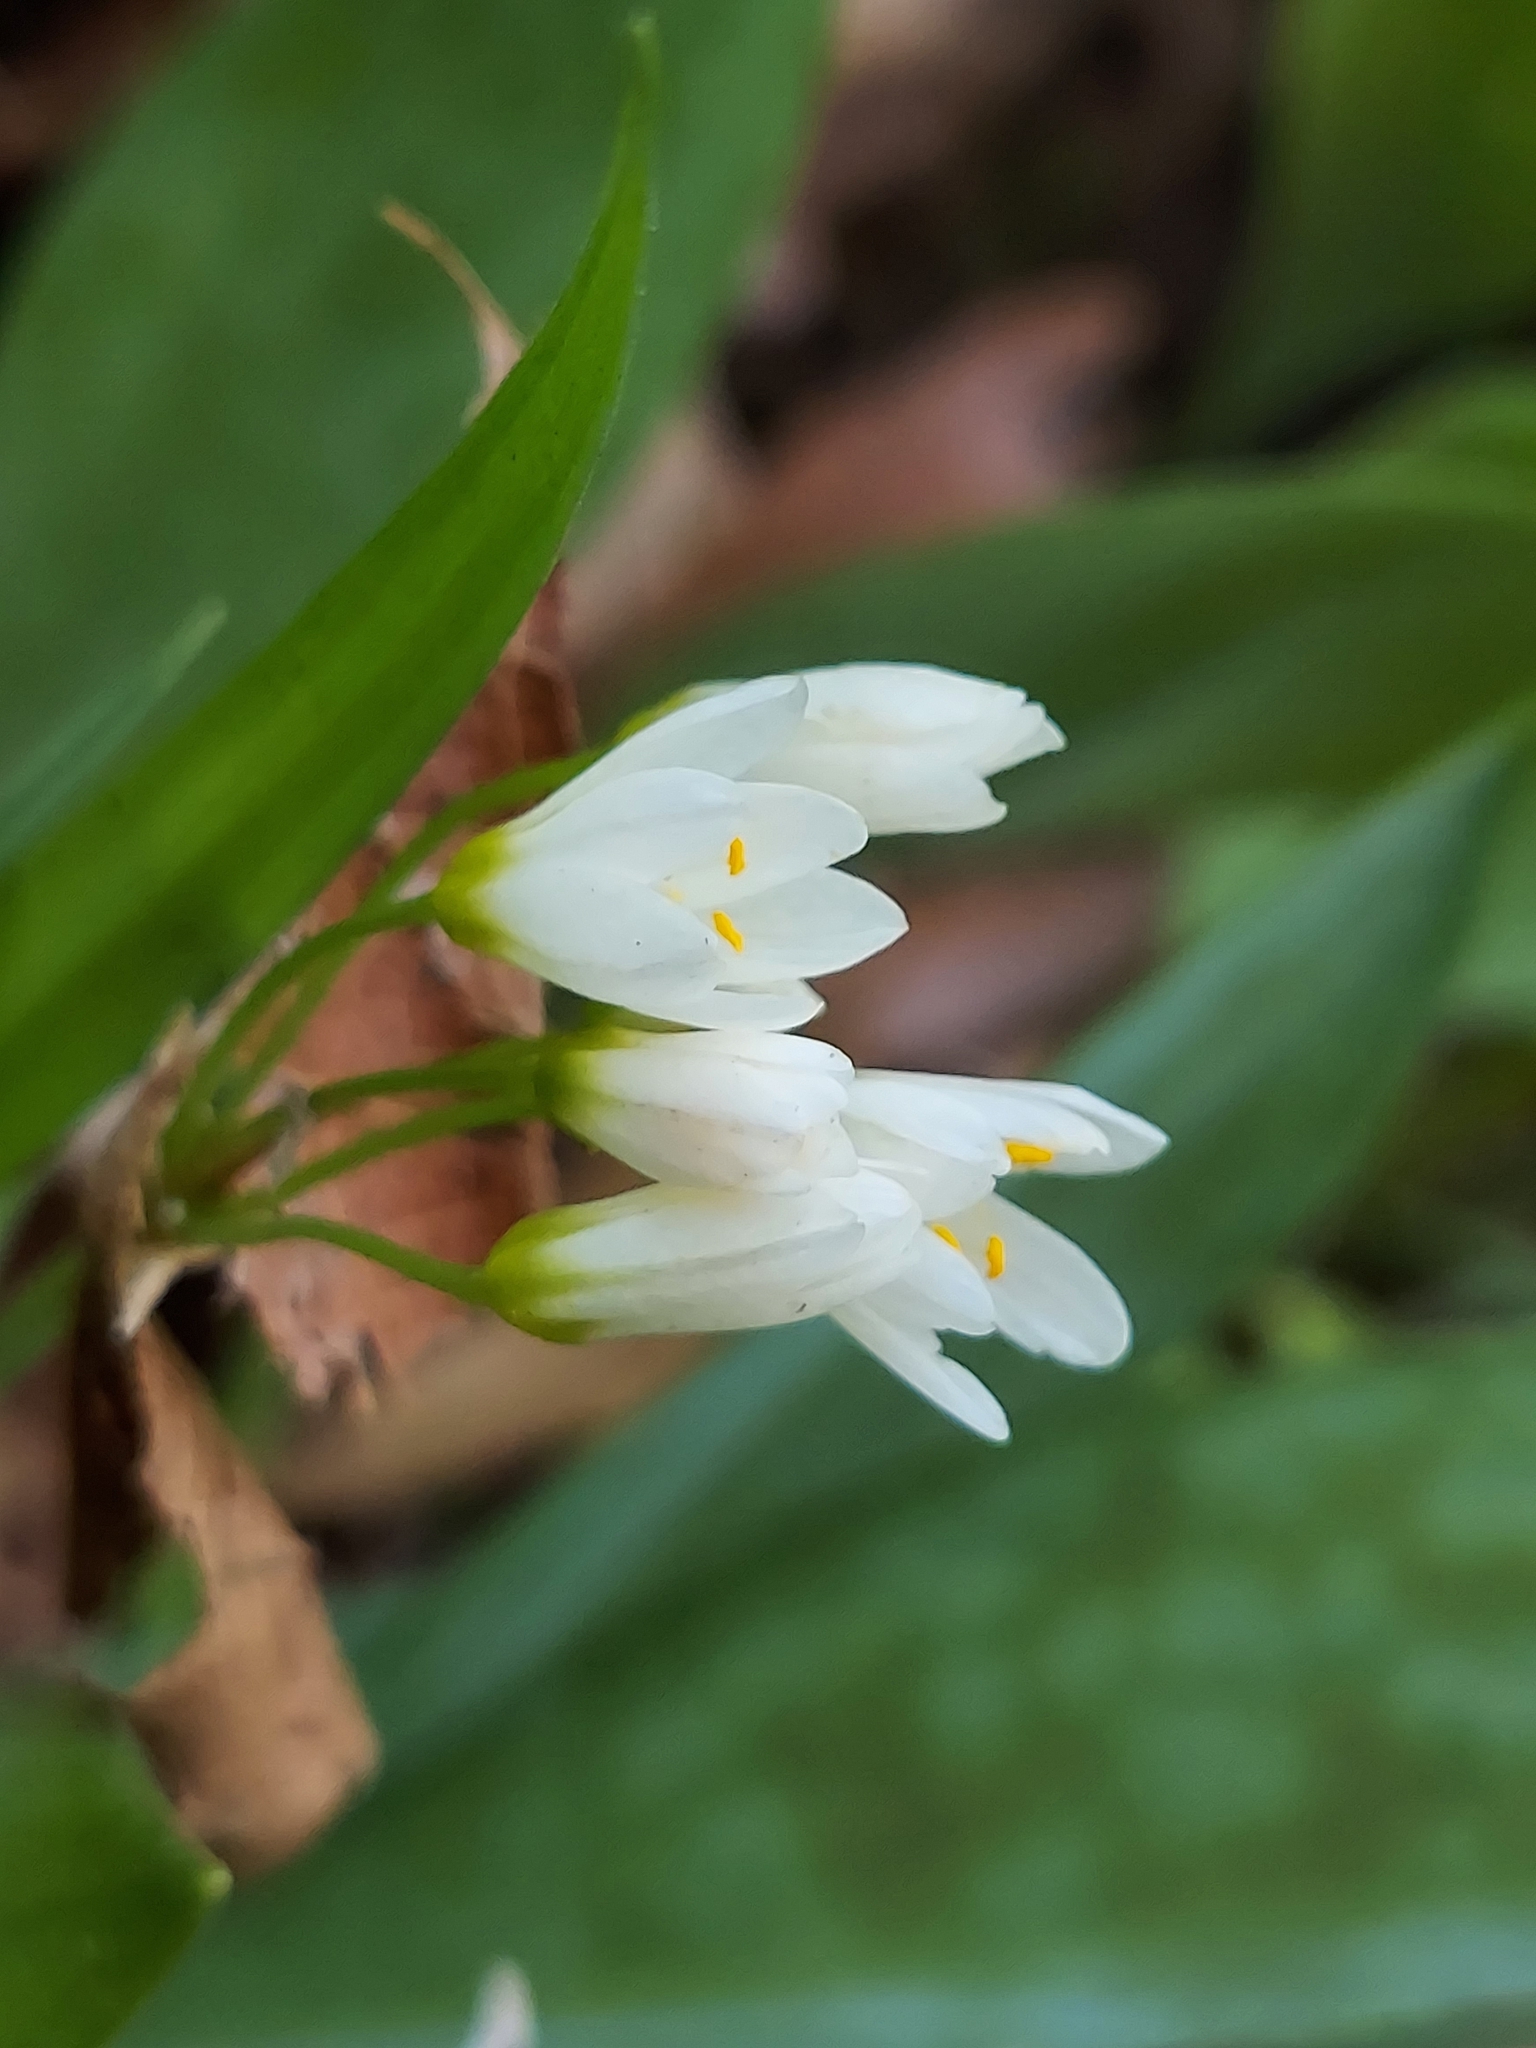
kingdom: Plantae
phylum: Tracheophyta
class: Liliopsida
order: Asparagales
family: Amaryllidaceae
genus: Nothoscordum
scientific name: Nothoscordum bivalve
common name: Crow-poison
